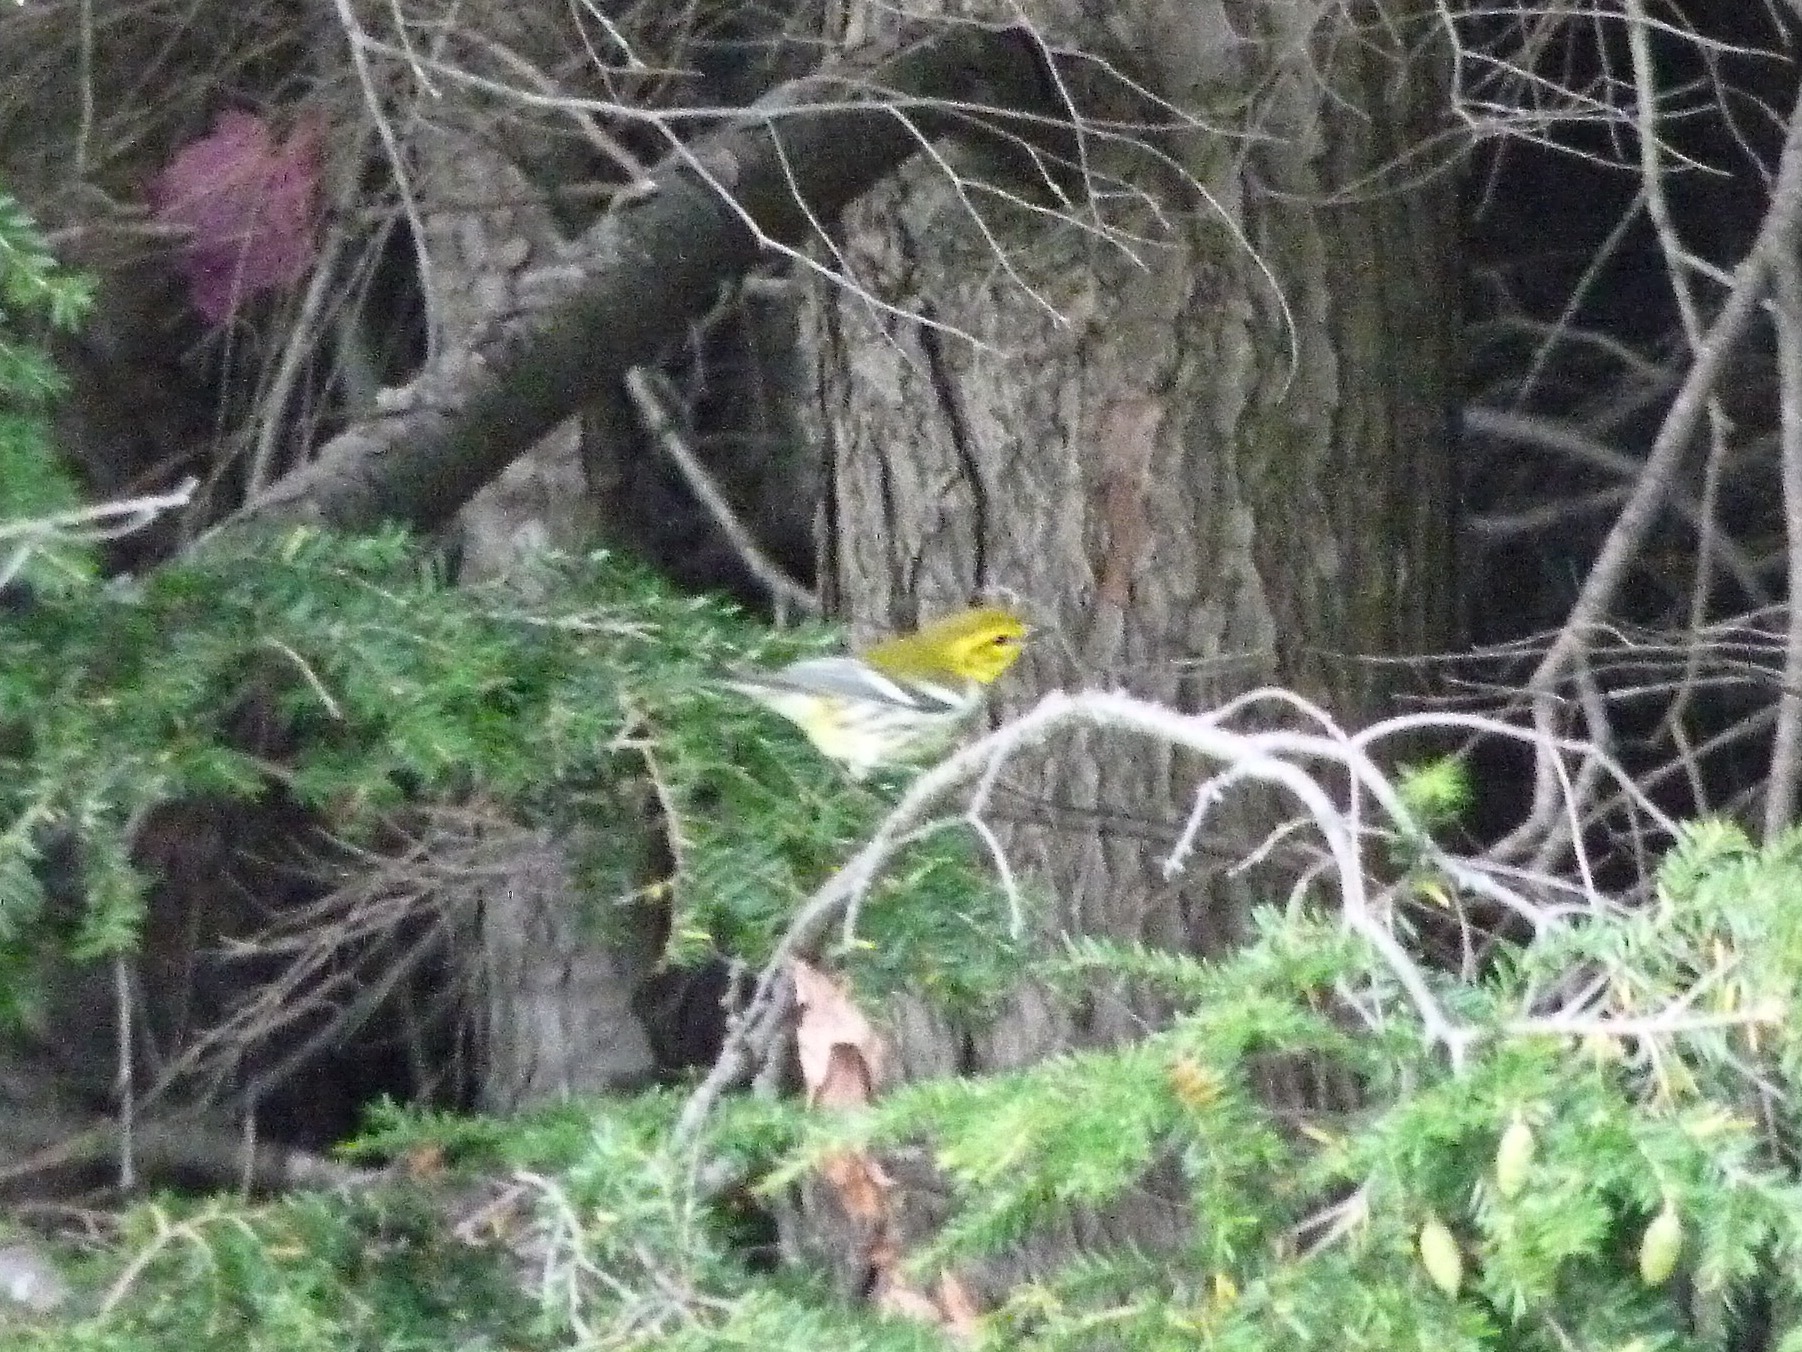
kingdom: Animalia
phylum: Chordata
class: Aves
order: Passeriformes
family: Parulidae
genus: Setophaga
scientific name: Setophaga virens
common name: Black-throated green warbler
